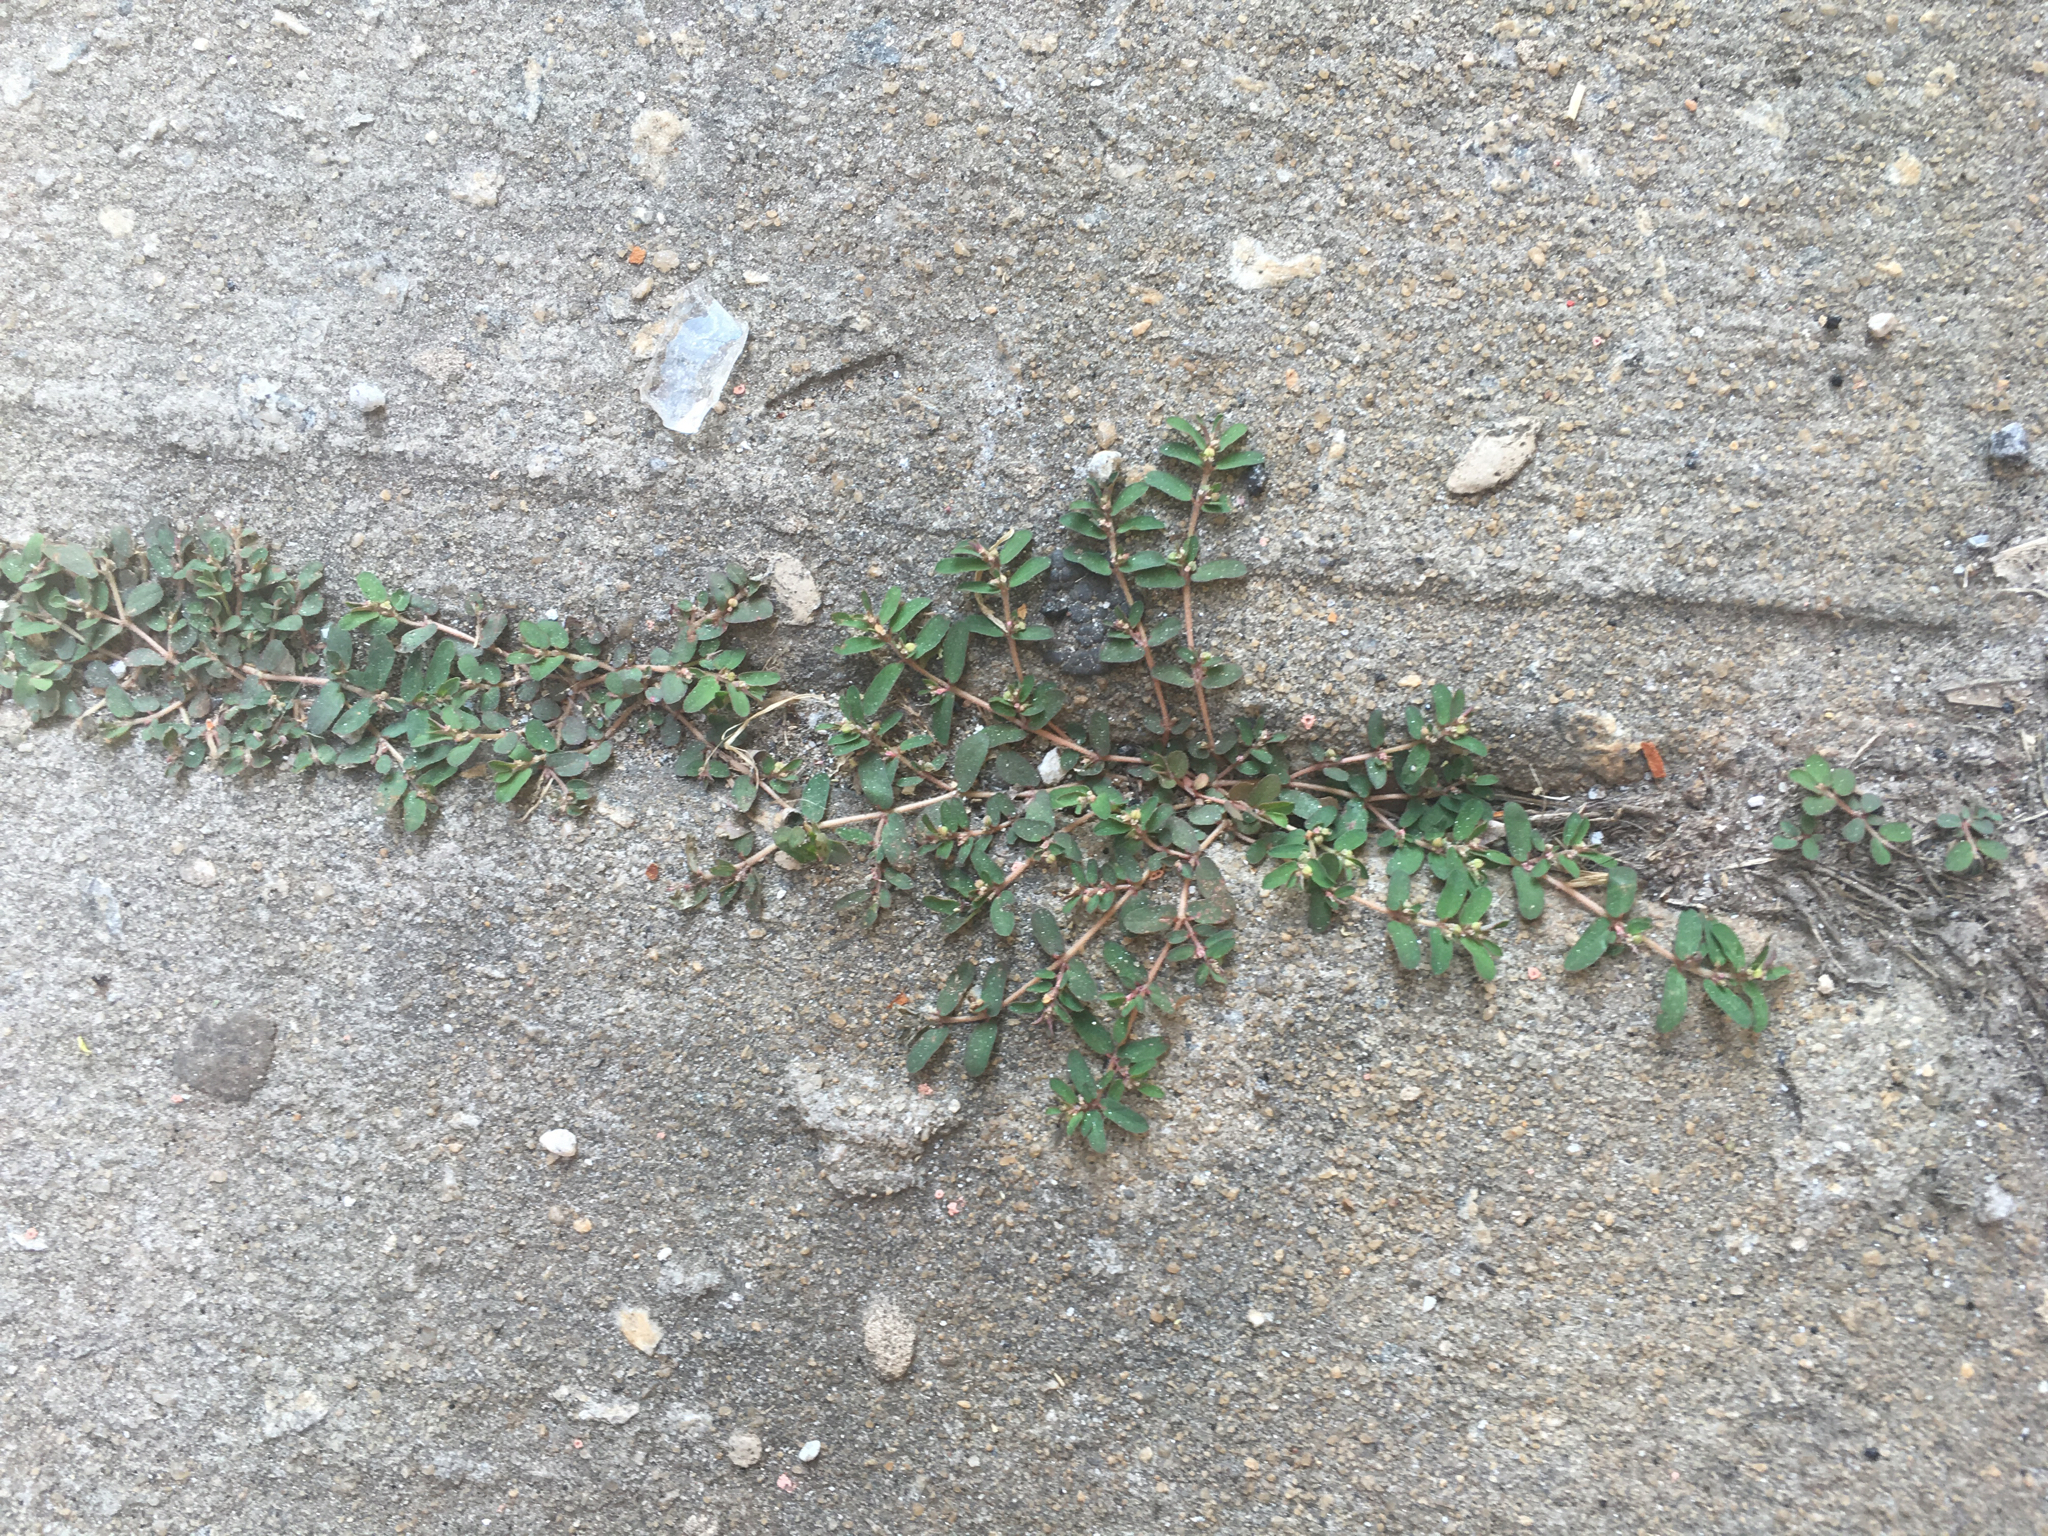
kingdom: Plantae
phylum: Tracheophyta
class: Magnoliopsida
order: Malpighiales
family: Euphorbiaceae
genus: Euphorbia
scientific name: Euphorbia maculata
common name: Spotted spurge
